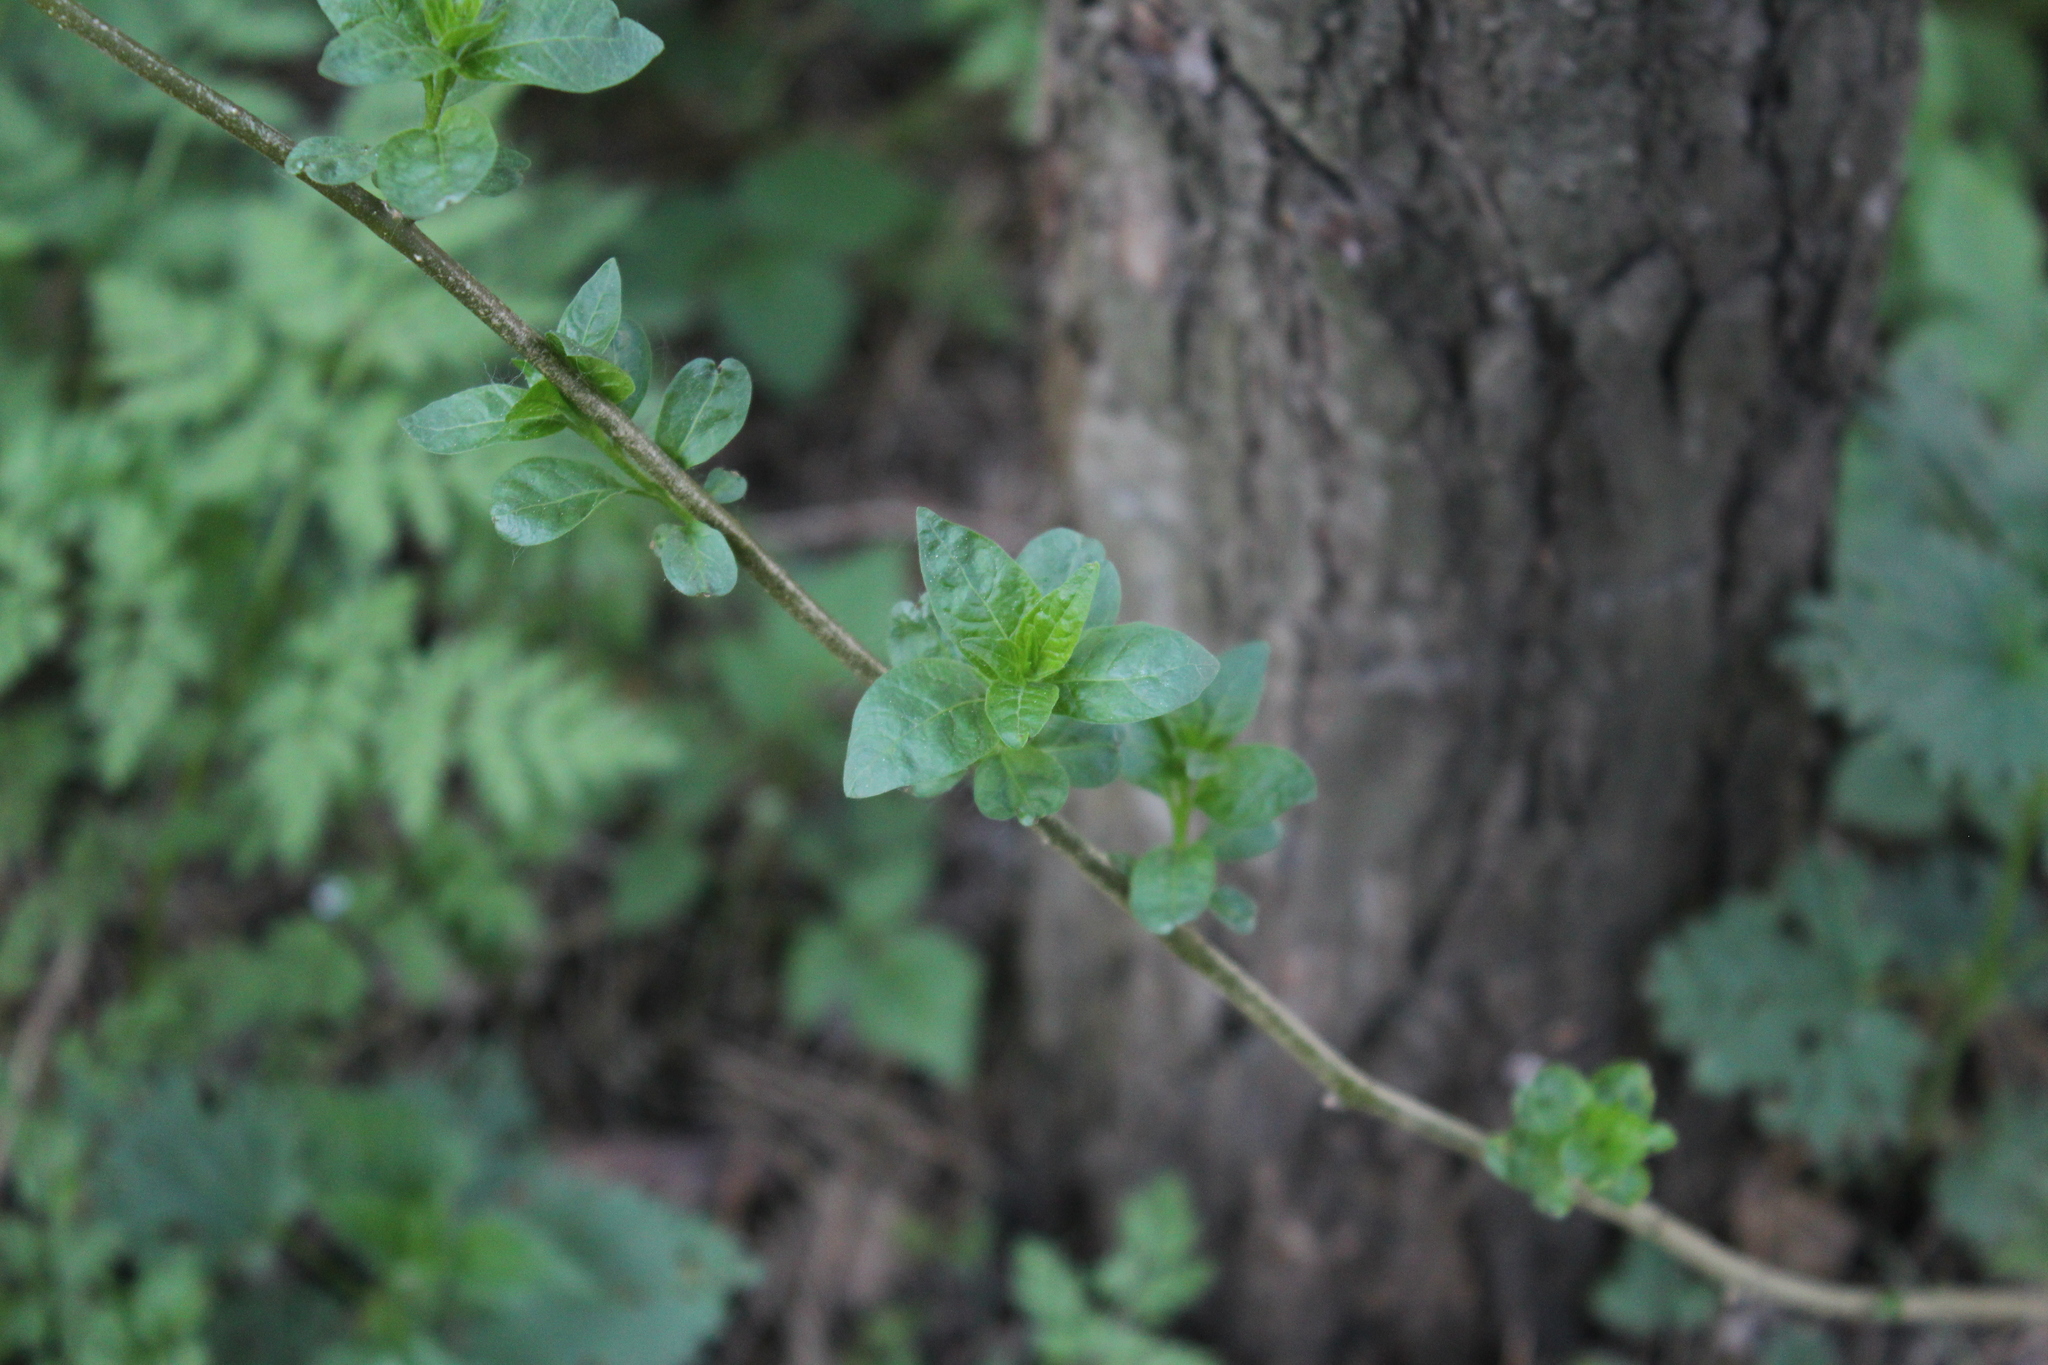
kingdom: Plantae
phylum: Tracheophyta
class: Magnoliopsida
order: Solanales
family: Solanaceae
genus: Solanum
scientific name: Solanum dulcamara
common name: Climbing nightshade
